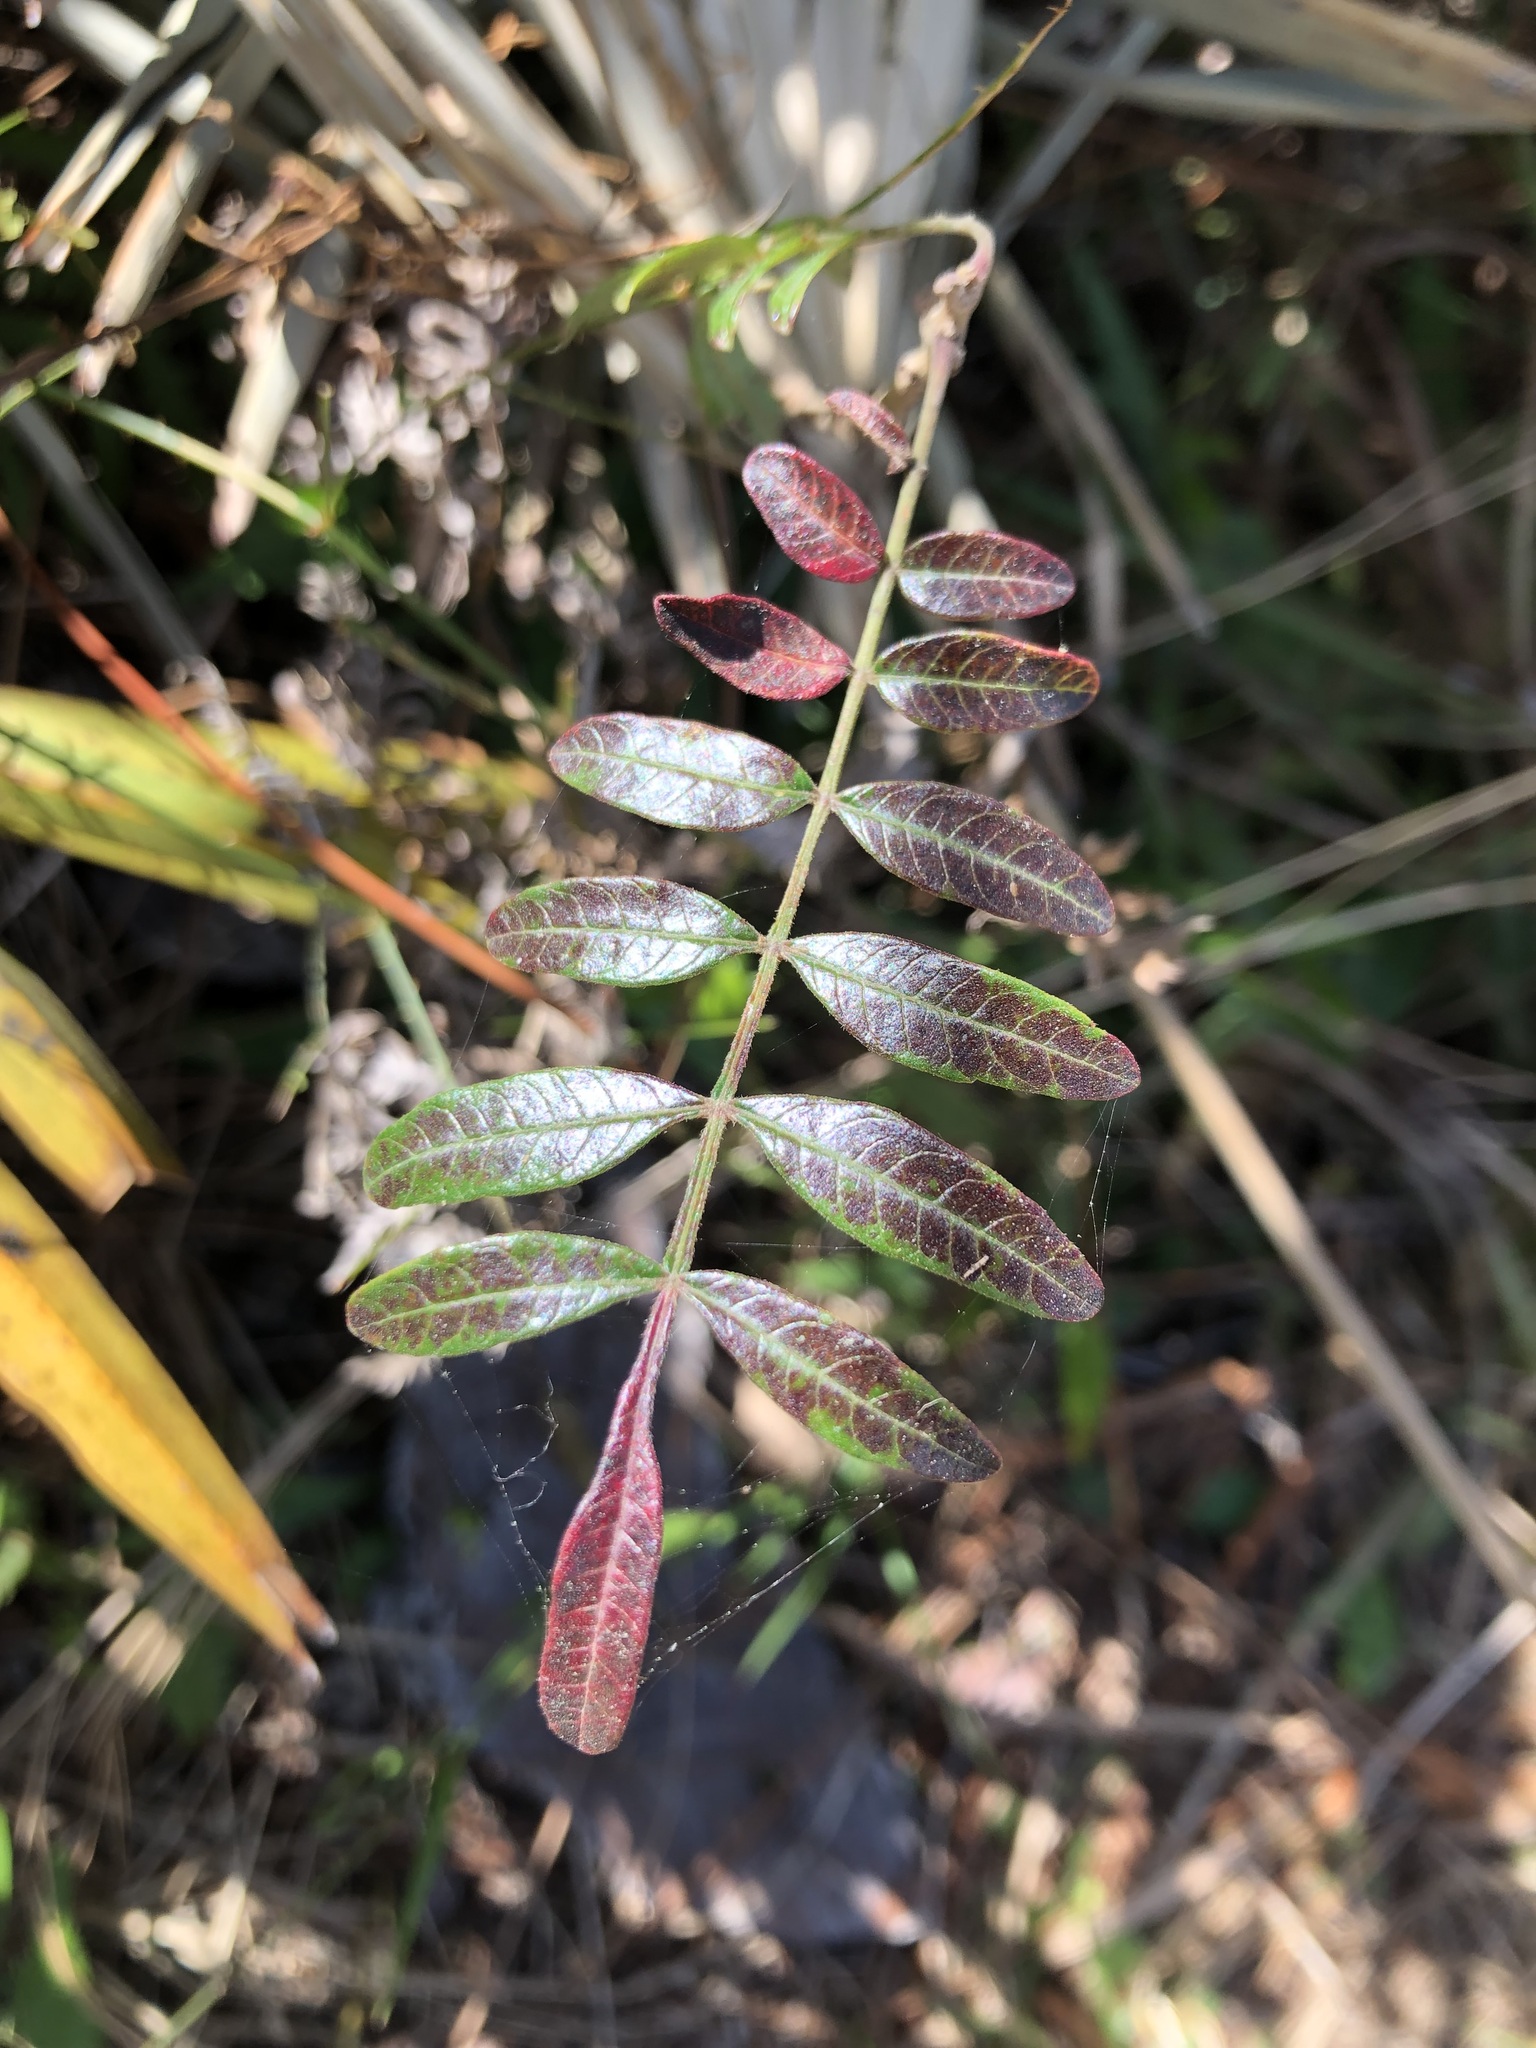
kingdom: Plantae
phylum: Tracheophyta
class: Magnoliopsida
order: Sapindales
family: Anacardiaceae
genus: Rhus
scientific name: Rhus copallina
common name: Shining sumac
